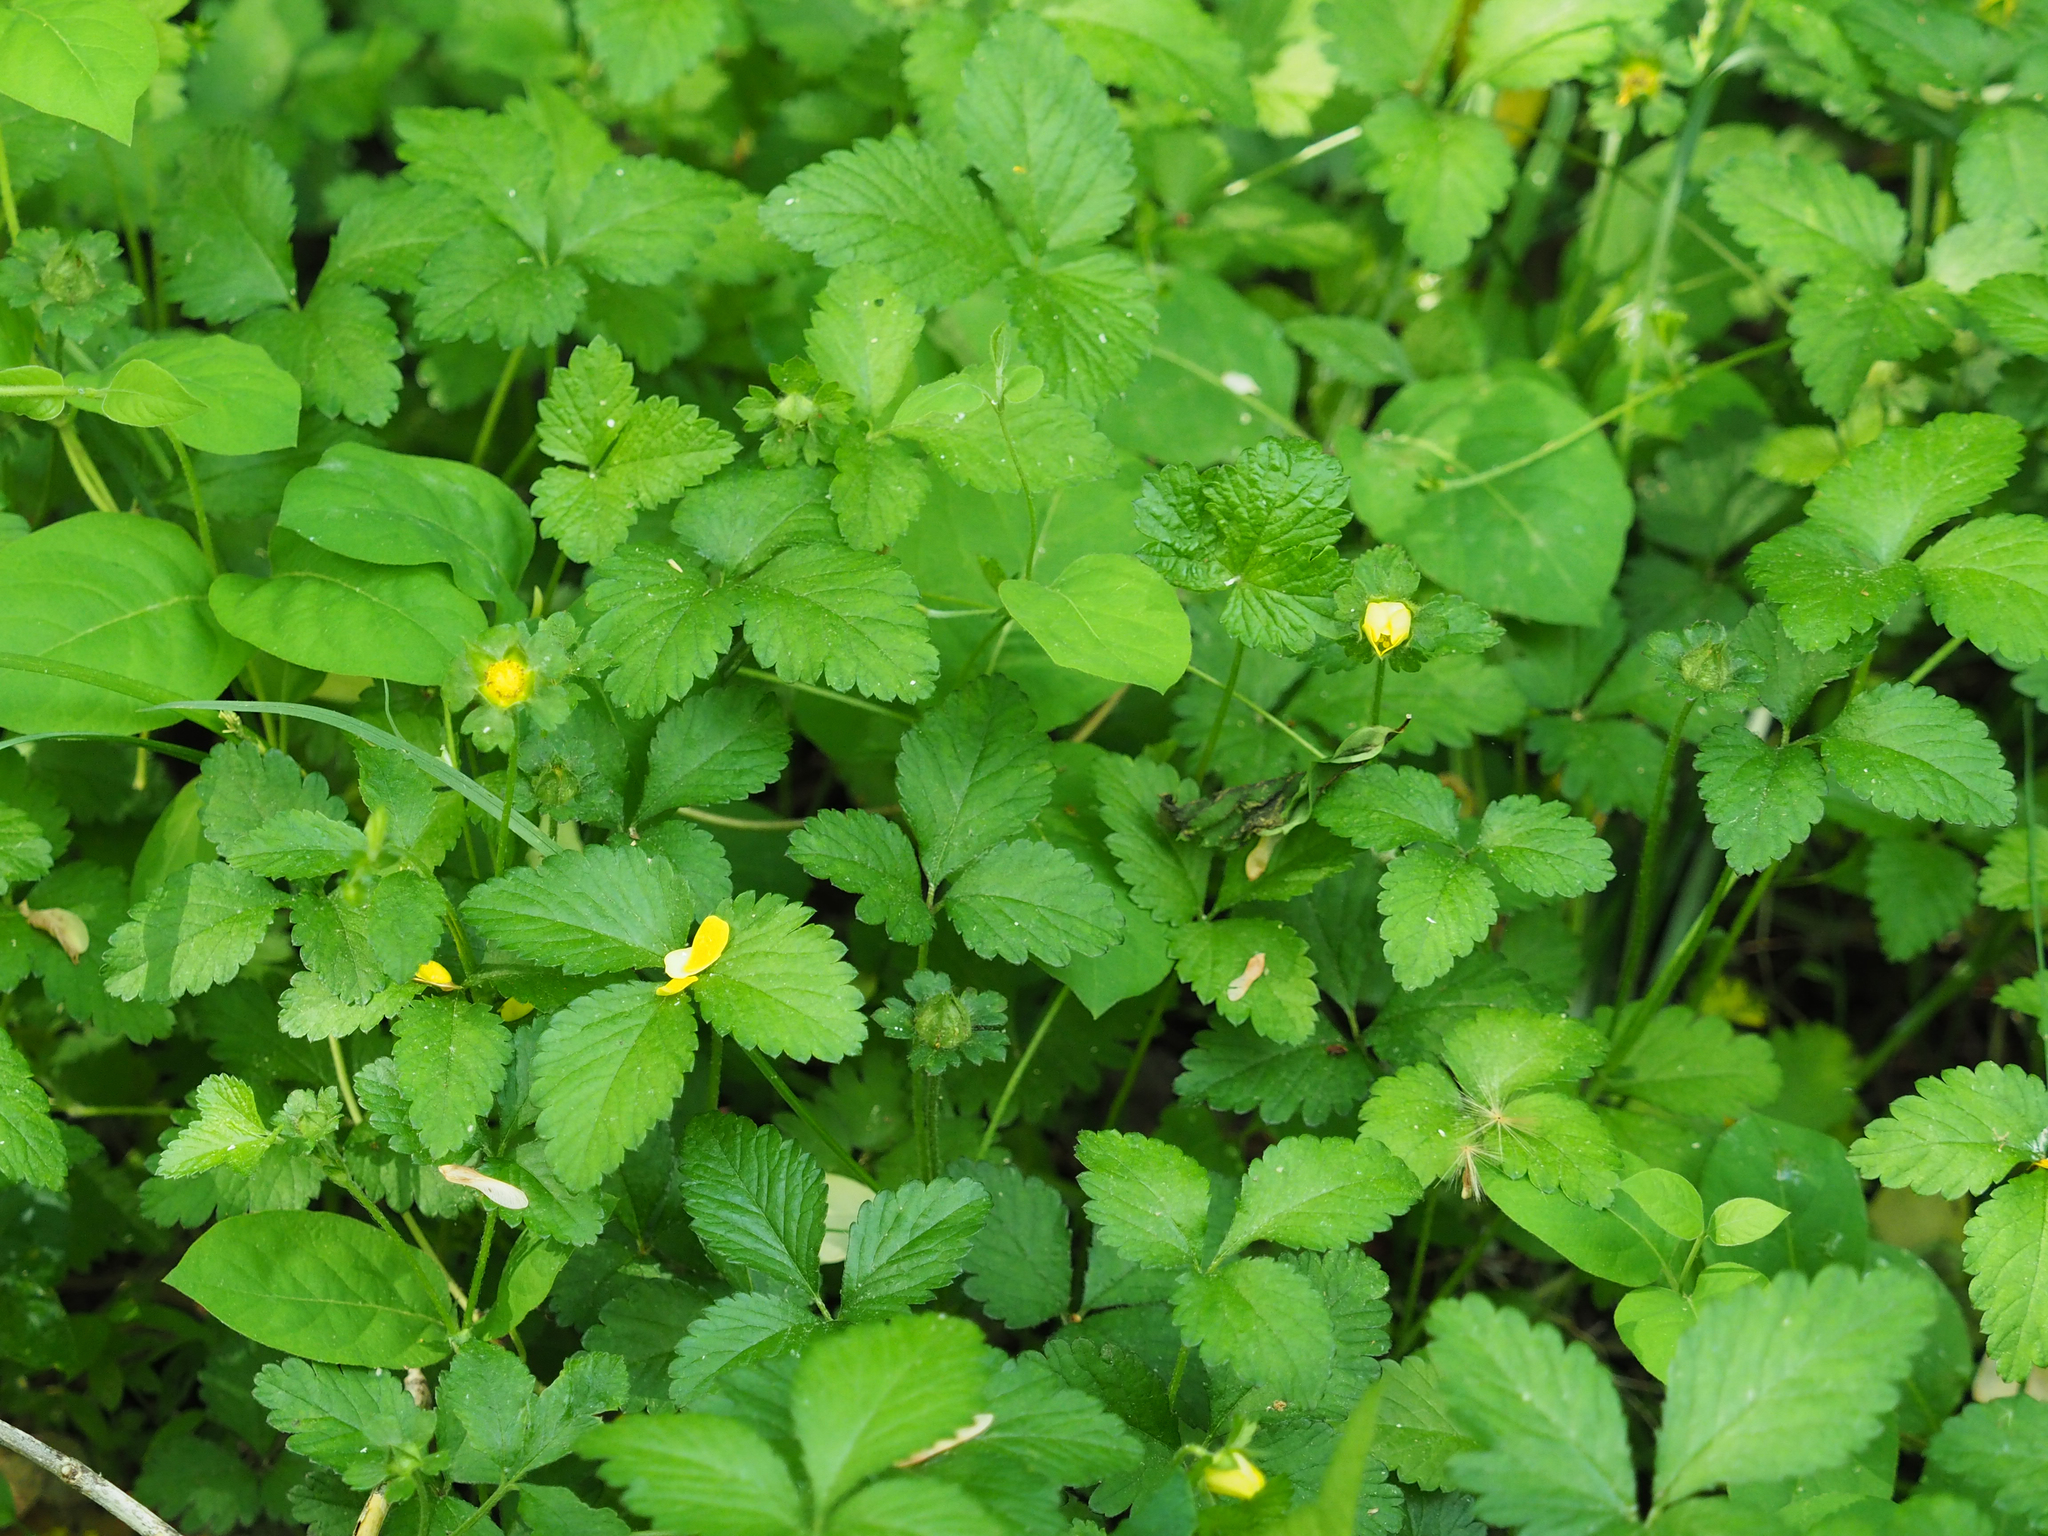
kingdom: Plantae
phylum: Tracheophyta
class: Magnoliopsida
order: Rosales
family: Rosaceae
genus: Potentilla
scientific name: Potentilla indica
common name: Yellow-flowered strawberry
